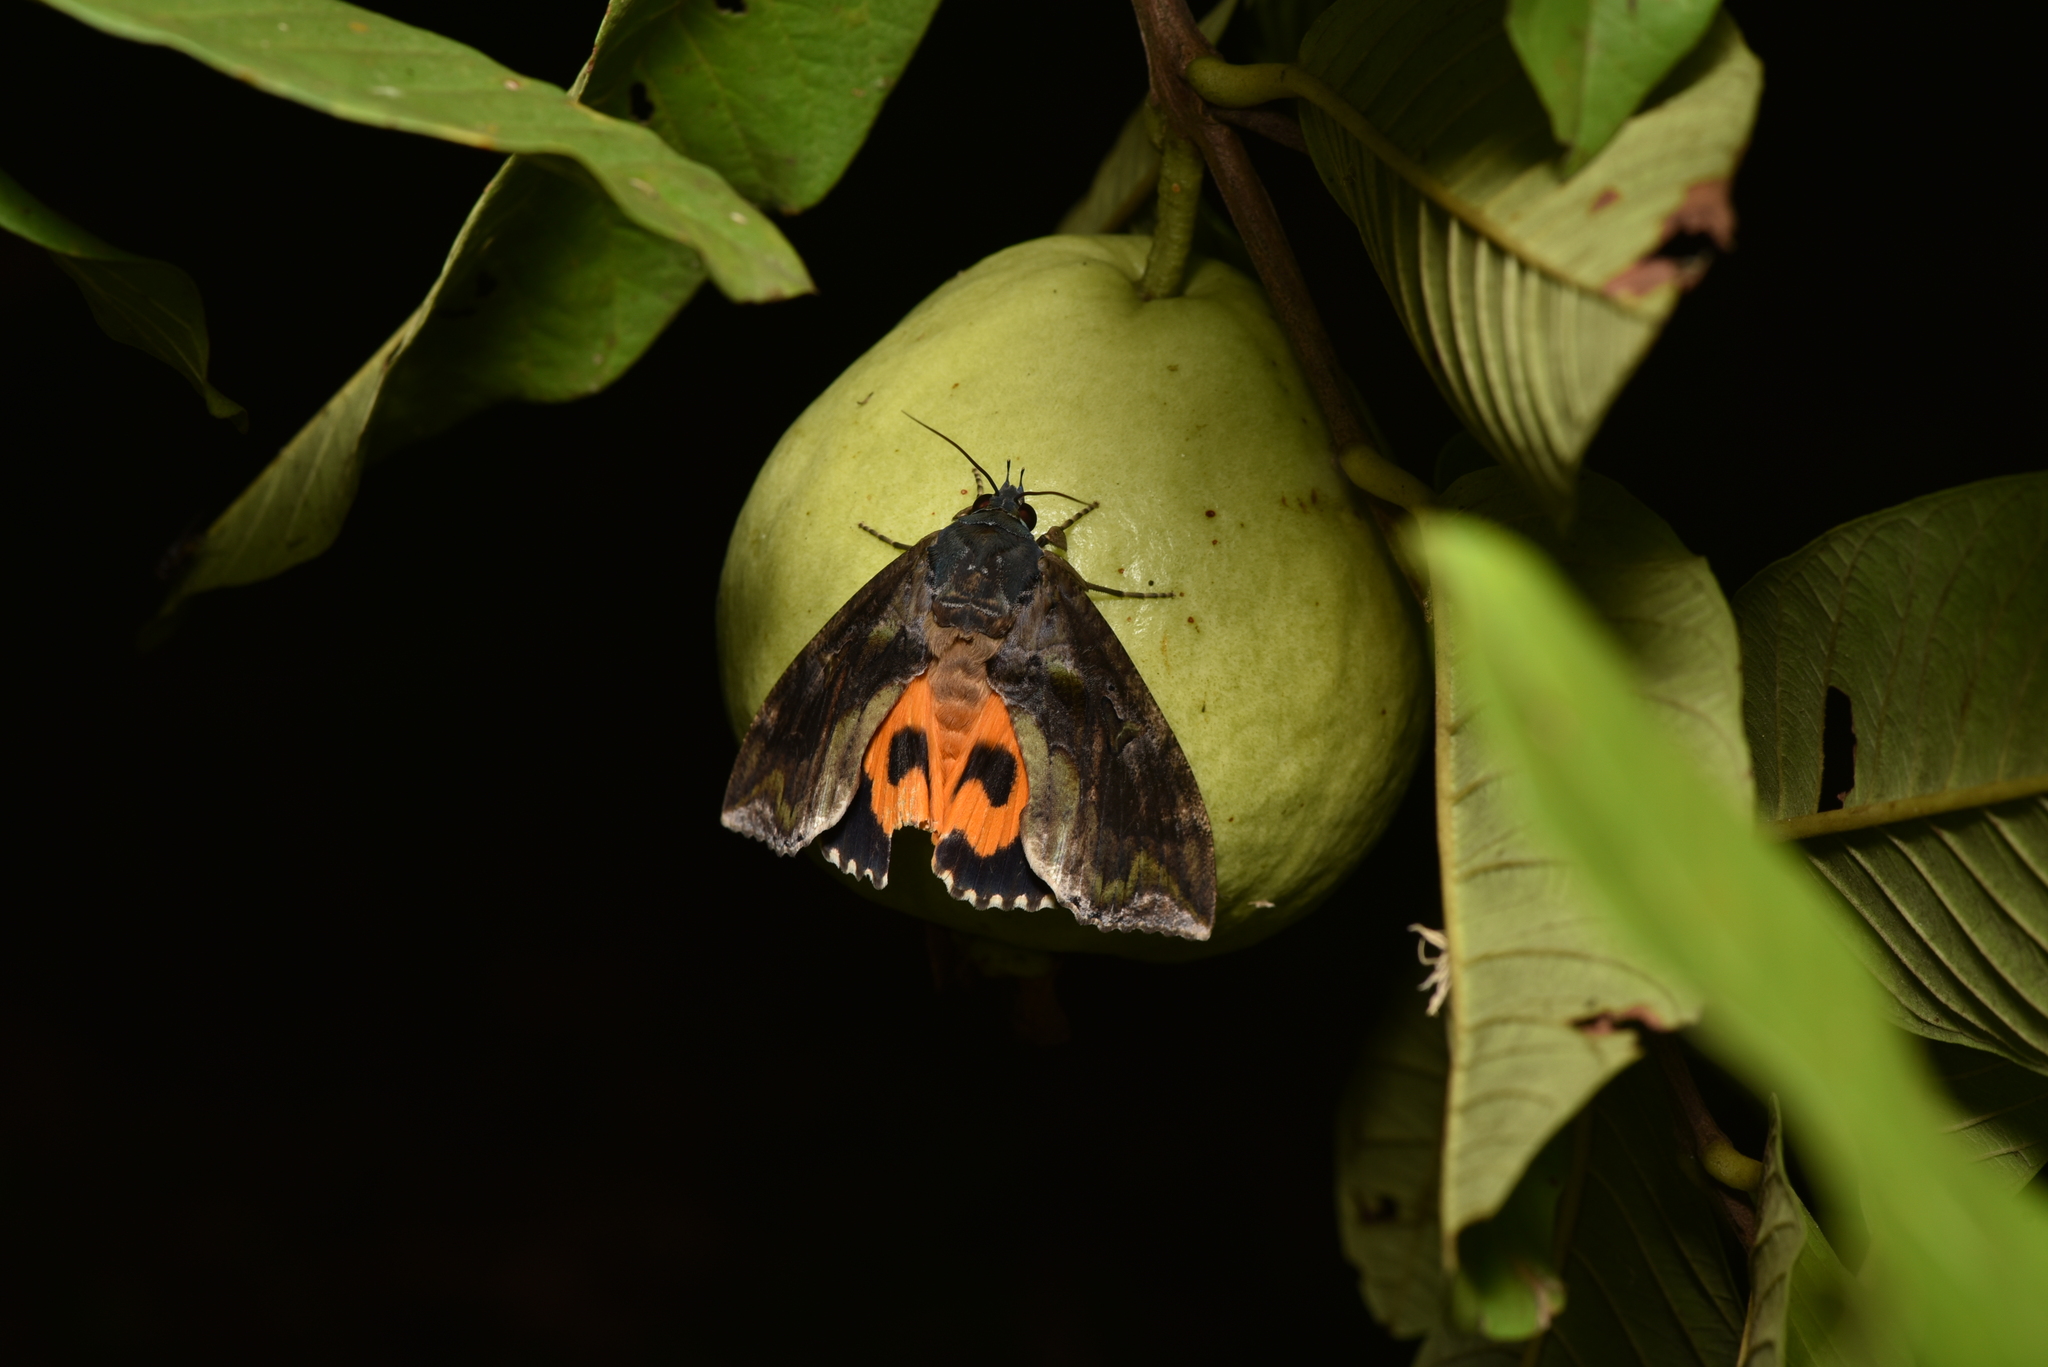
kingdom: Animalia
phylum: Arthropoda
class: Insecta
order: Lepidoptera
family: Erebidae
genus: Eudocima
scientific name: Eudocima phalonia
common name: Wasp
